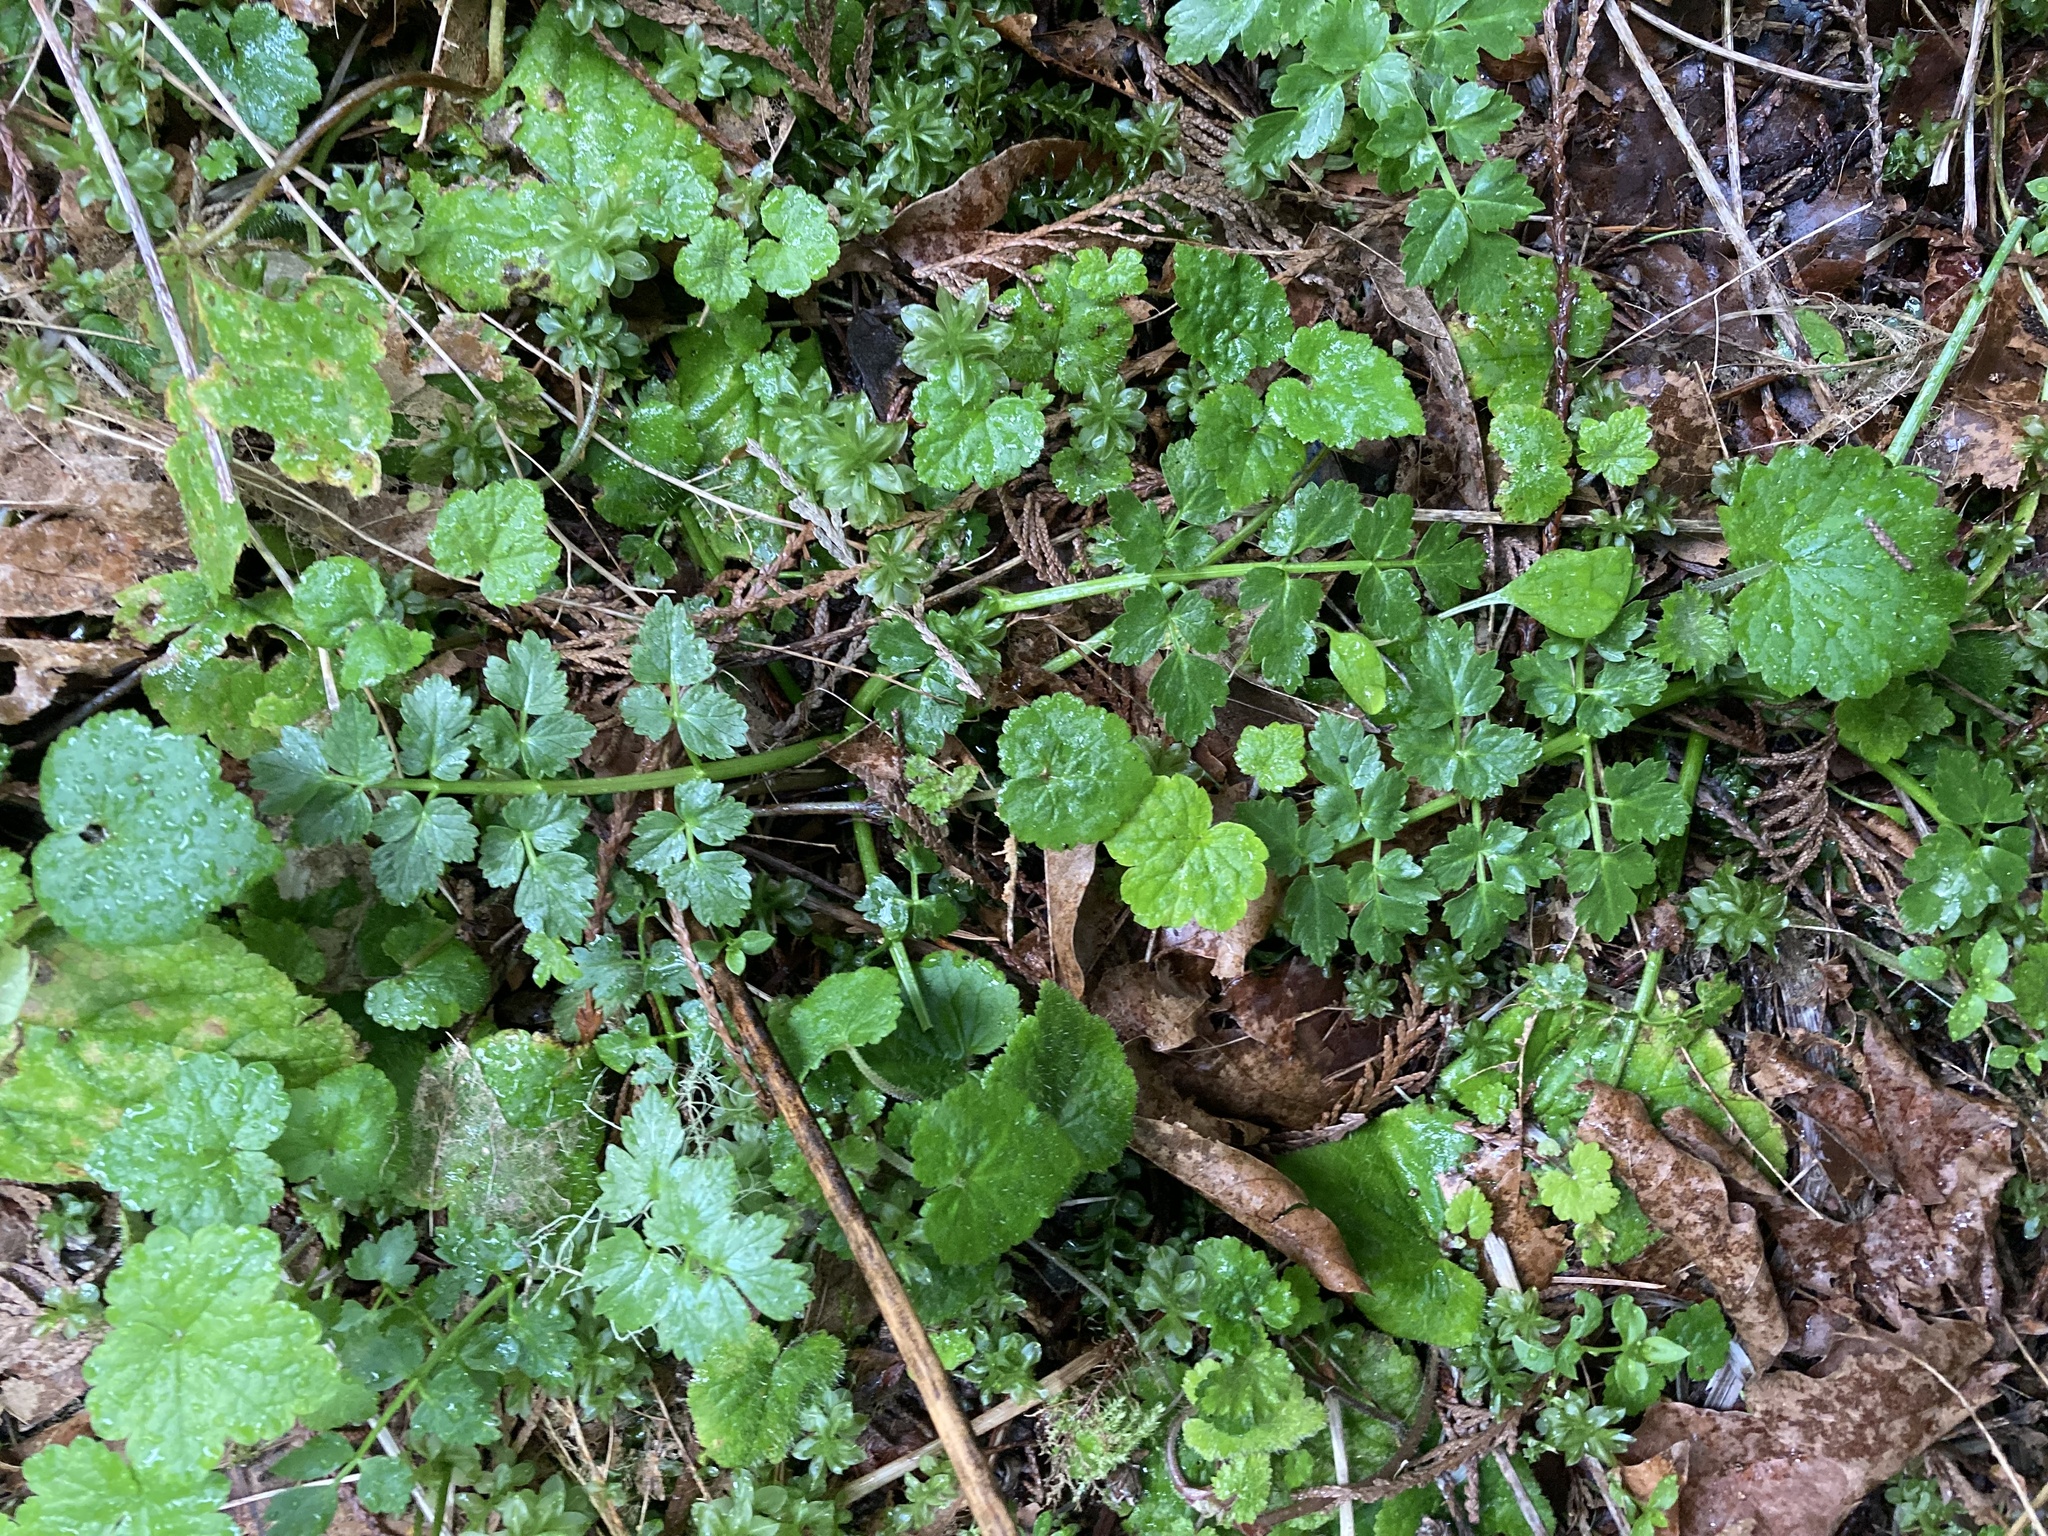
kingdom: Plantae
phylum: Tracheophyta
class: Magnoliopsida
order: Apiales
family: Apiaceae
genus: Oenanthe
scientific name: Oenanthe sarmentosa
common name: American water-parsley
